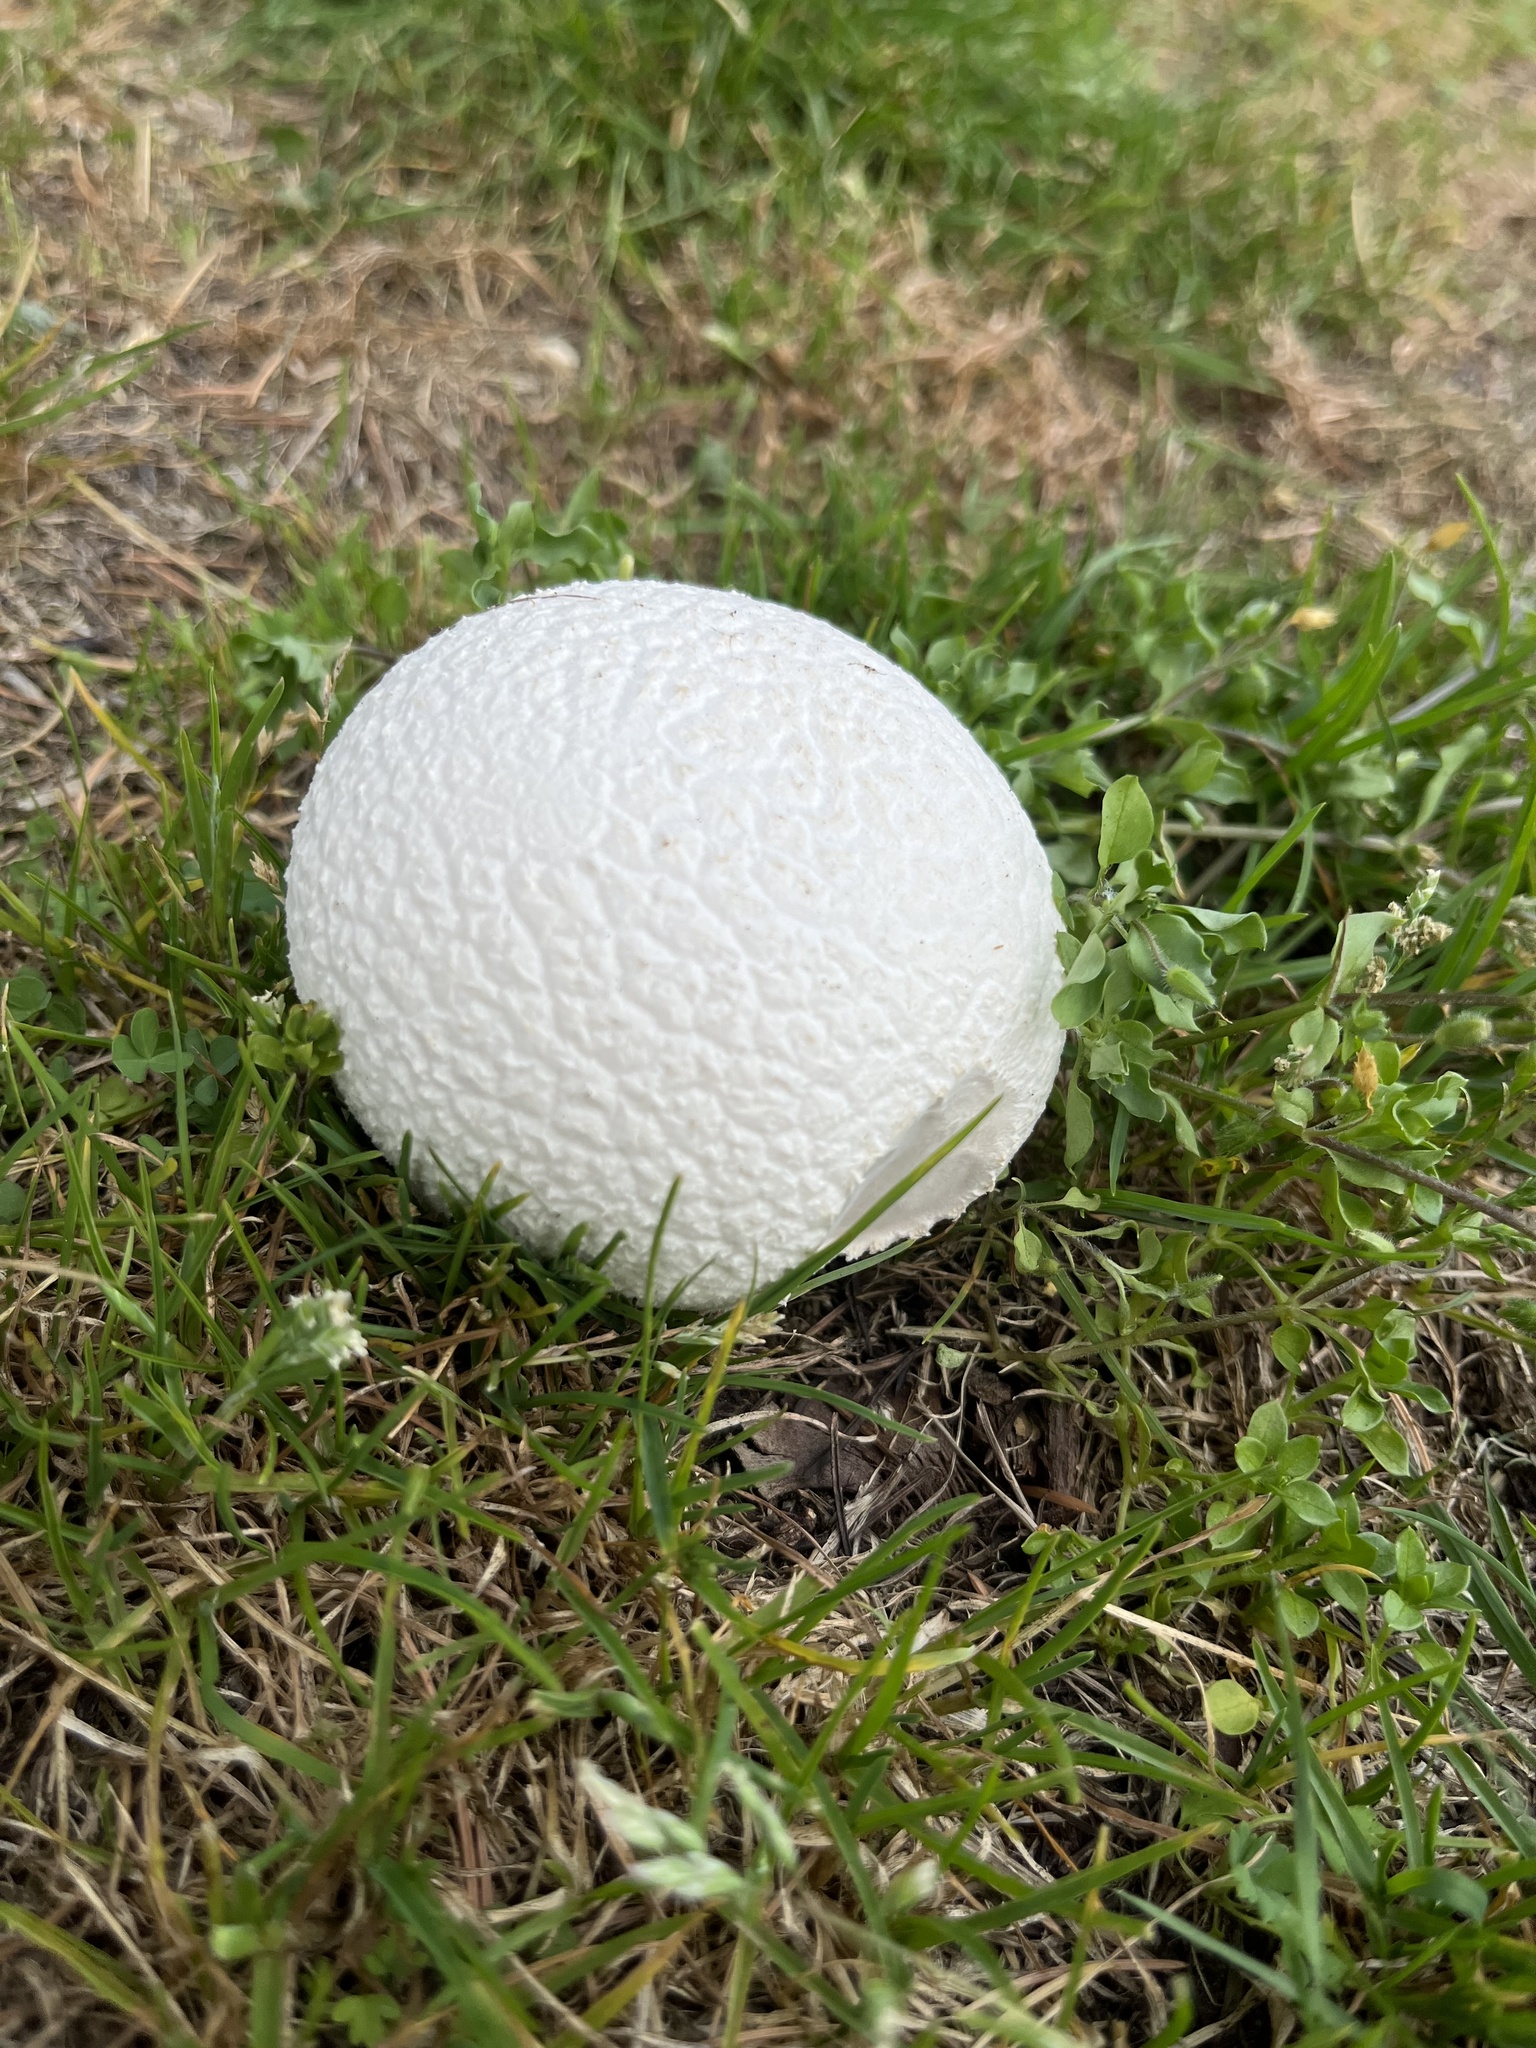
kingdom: Fungi
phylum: Basidiomycota
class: Agaricomycetes
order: Agaricales
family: Lycoperdaceae
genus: Bovistella
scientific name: Bovistella utriformis
